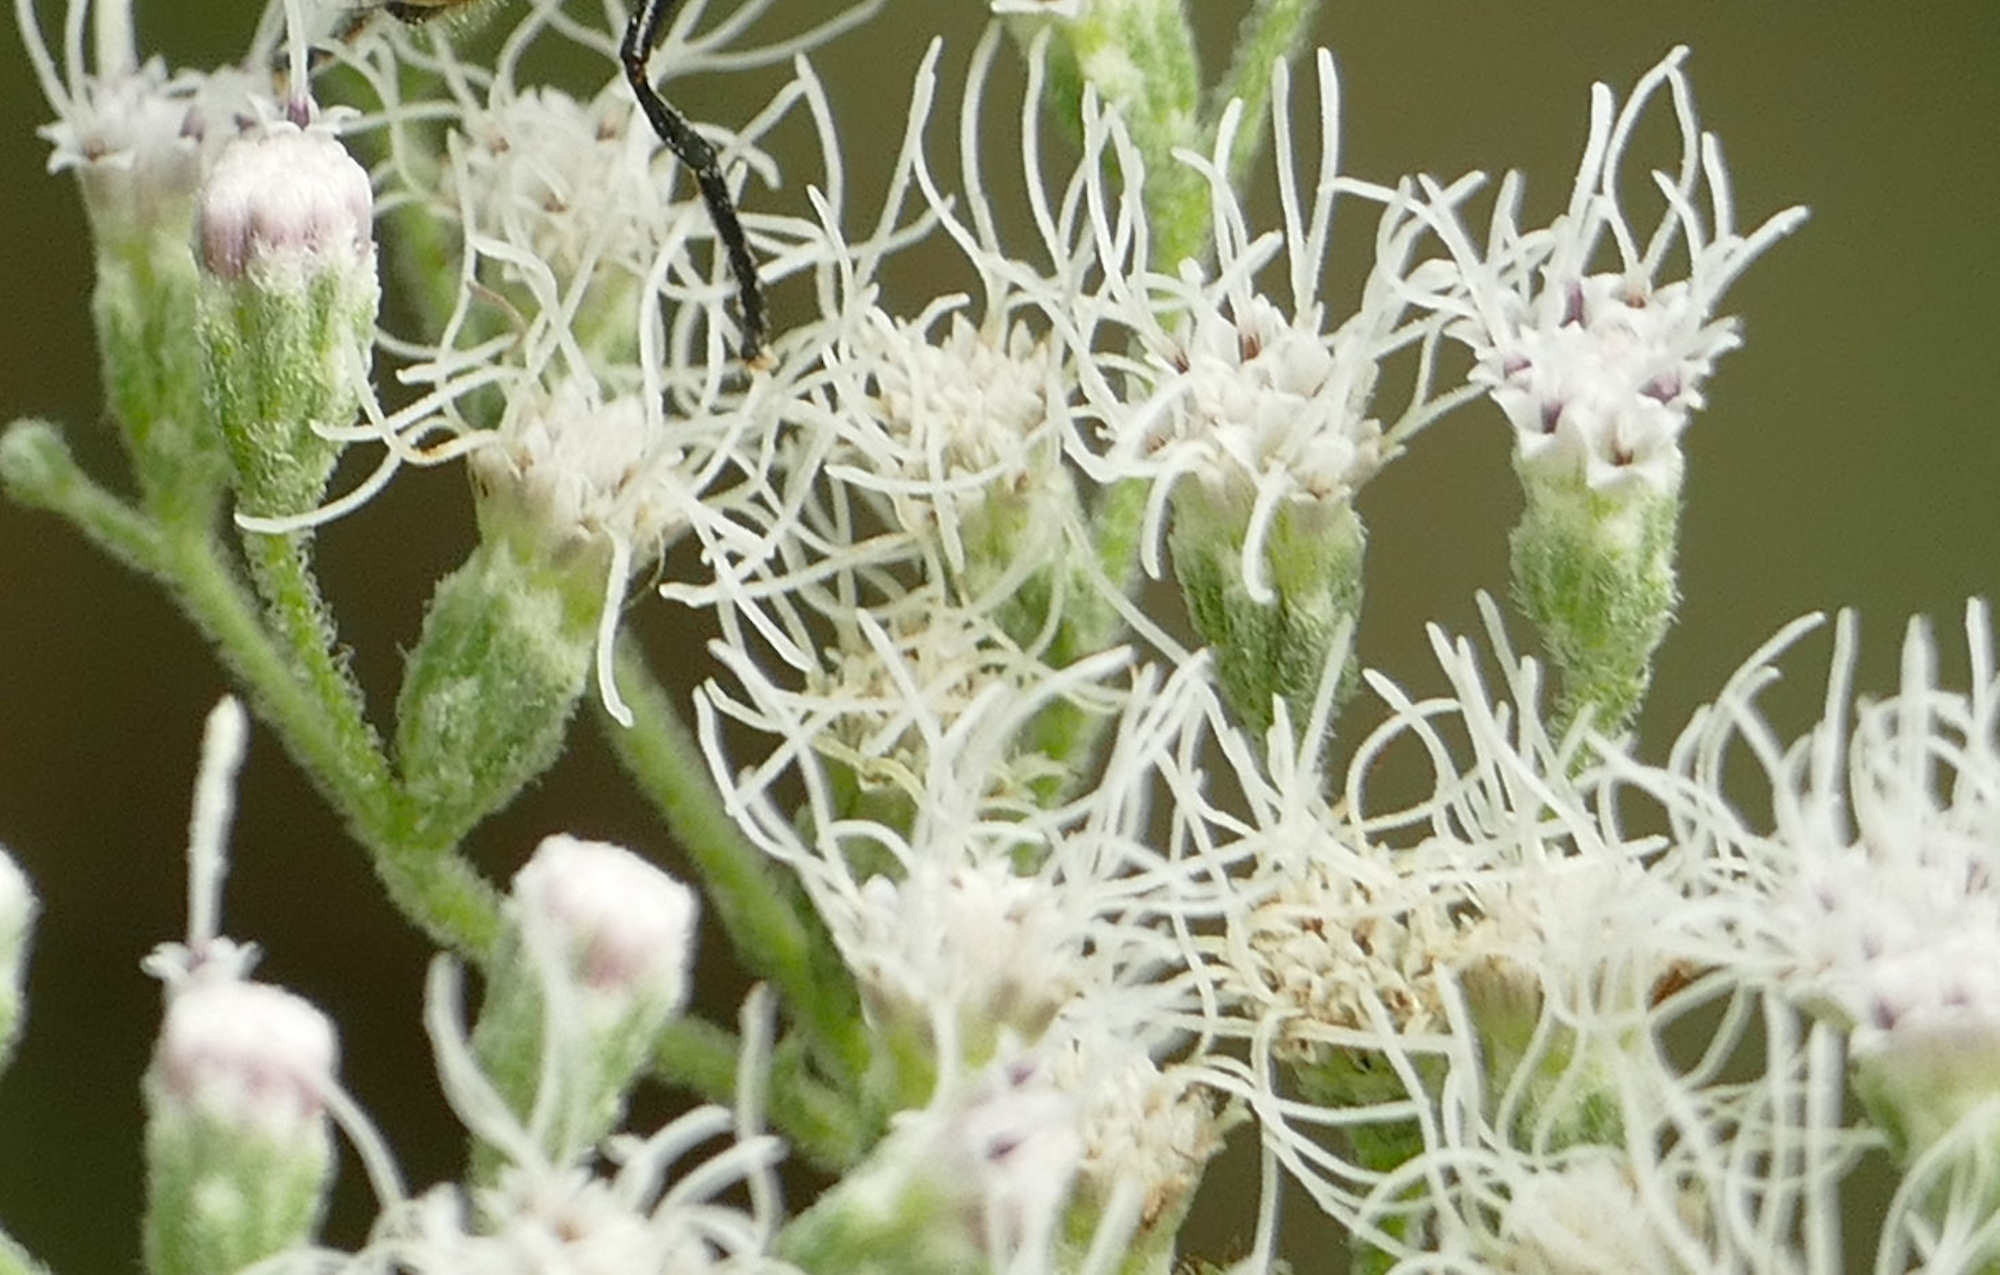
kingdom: Plantae
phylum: Tracheophyta
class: Magnoliopsida
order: Asterales
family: Asteraceae
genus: Eupatorium
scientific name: Eupatorium serotinum
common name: Late boneset
